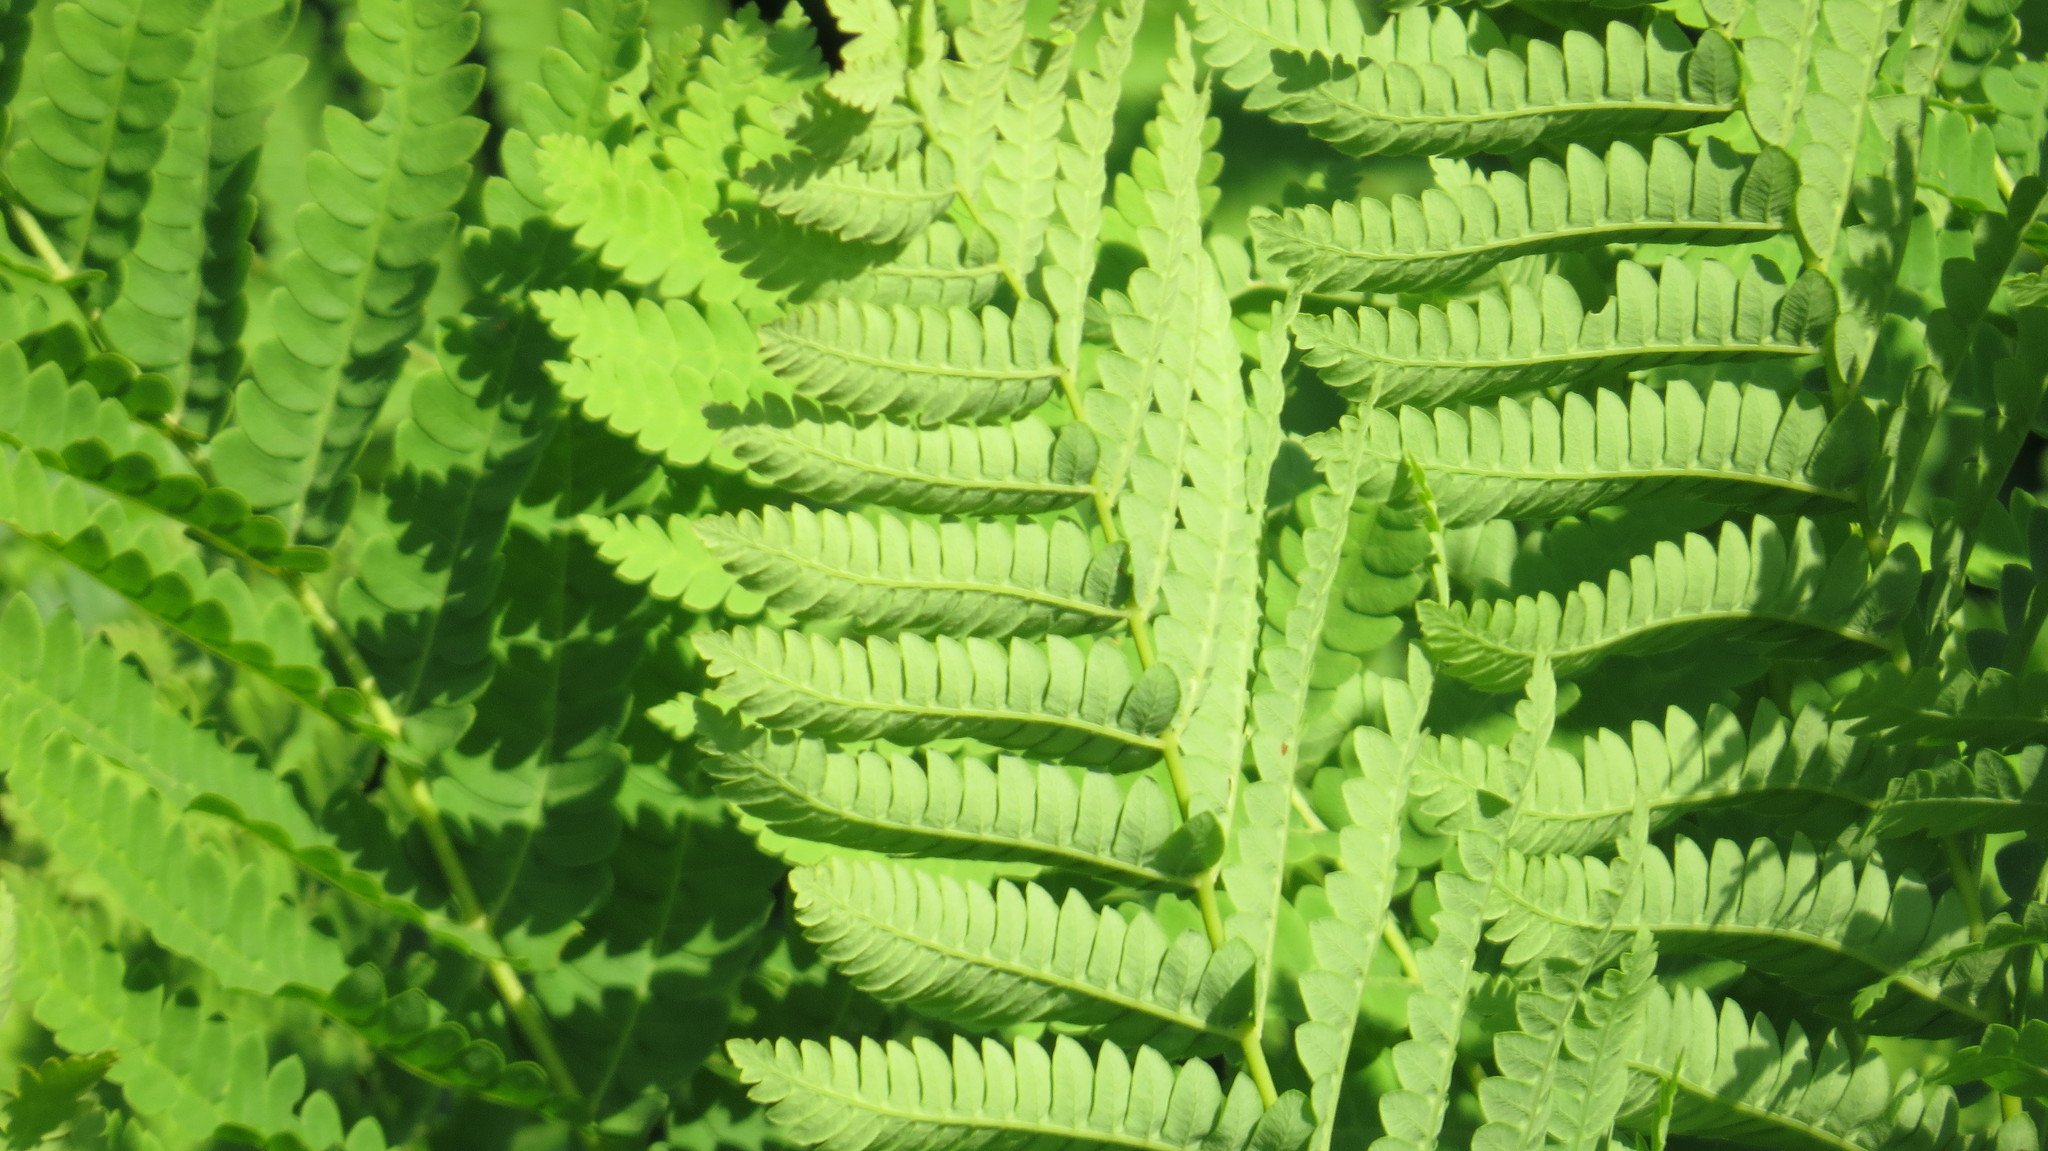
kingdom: Plantae
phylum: Tracheophyta
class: Polypodiopsida
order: Osmundales
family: Osmundaceae
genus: Claytosmunda
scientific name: Claytosmunda claytoniana
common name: Clayton's fern
